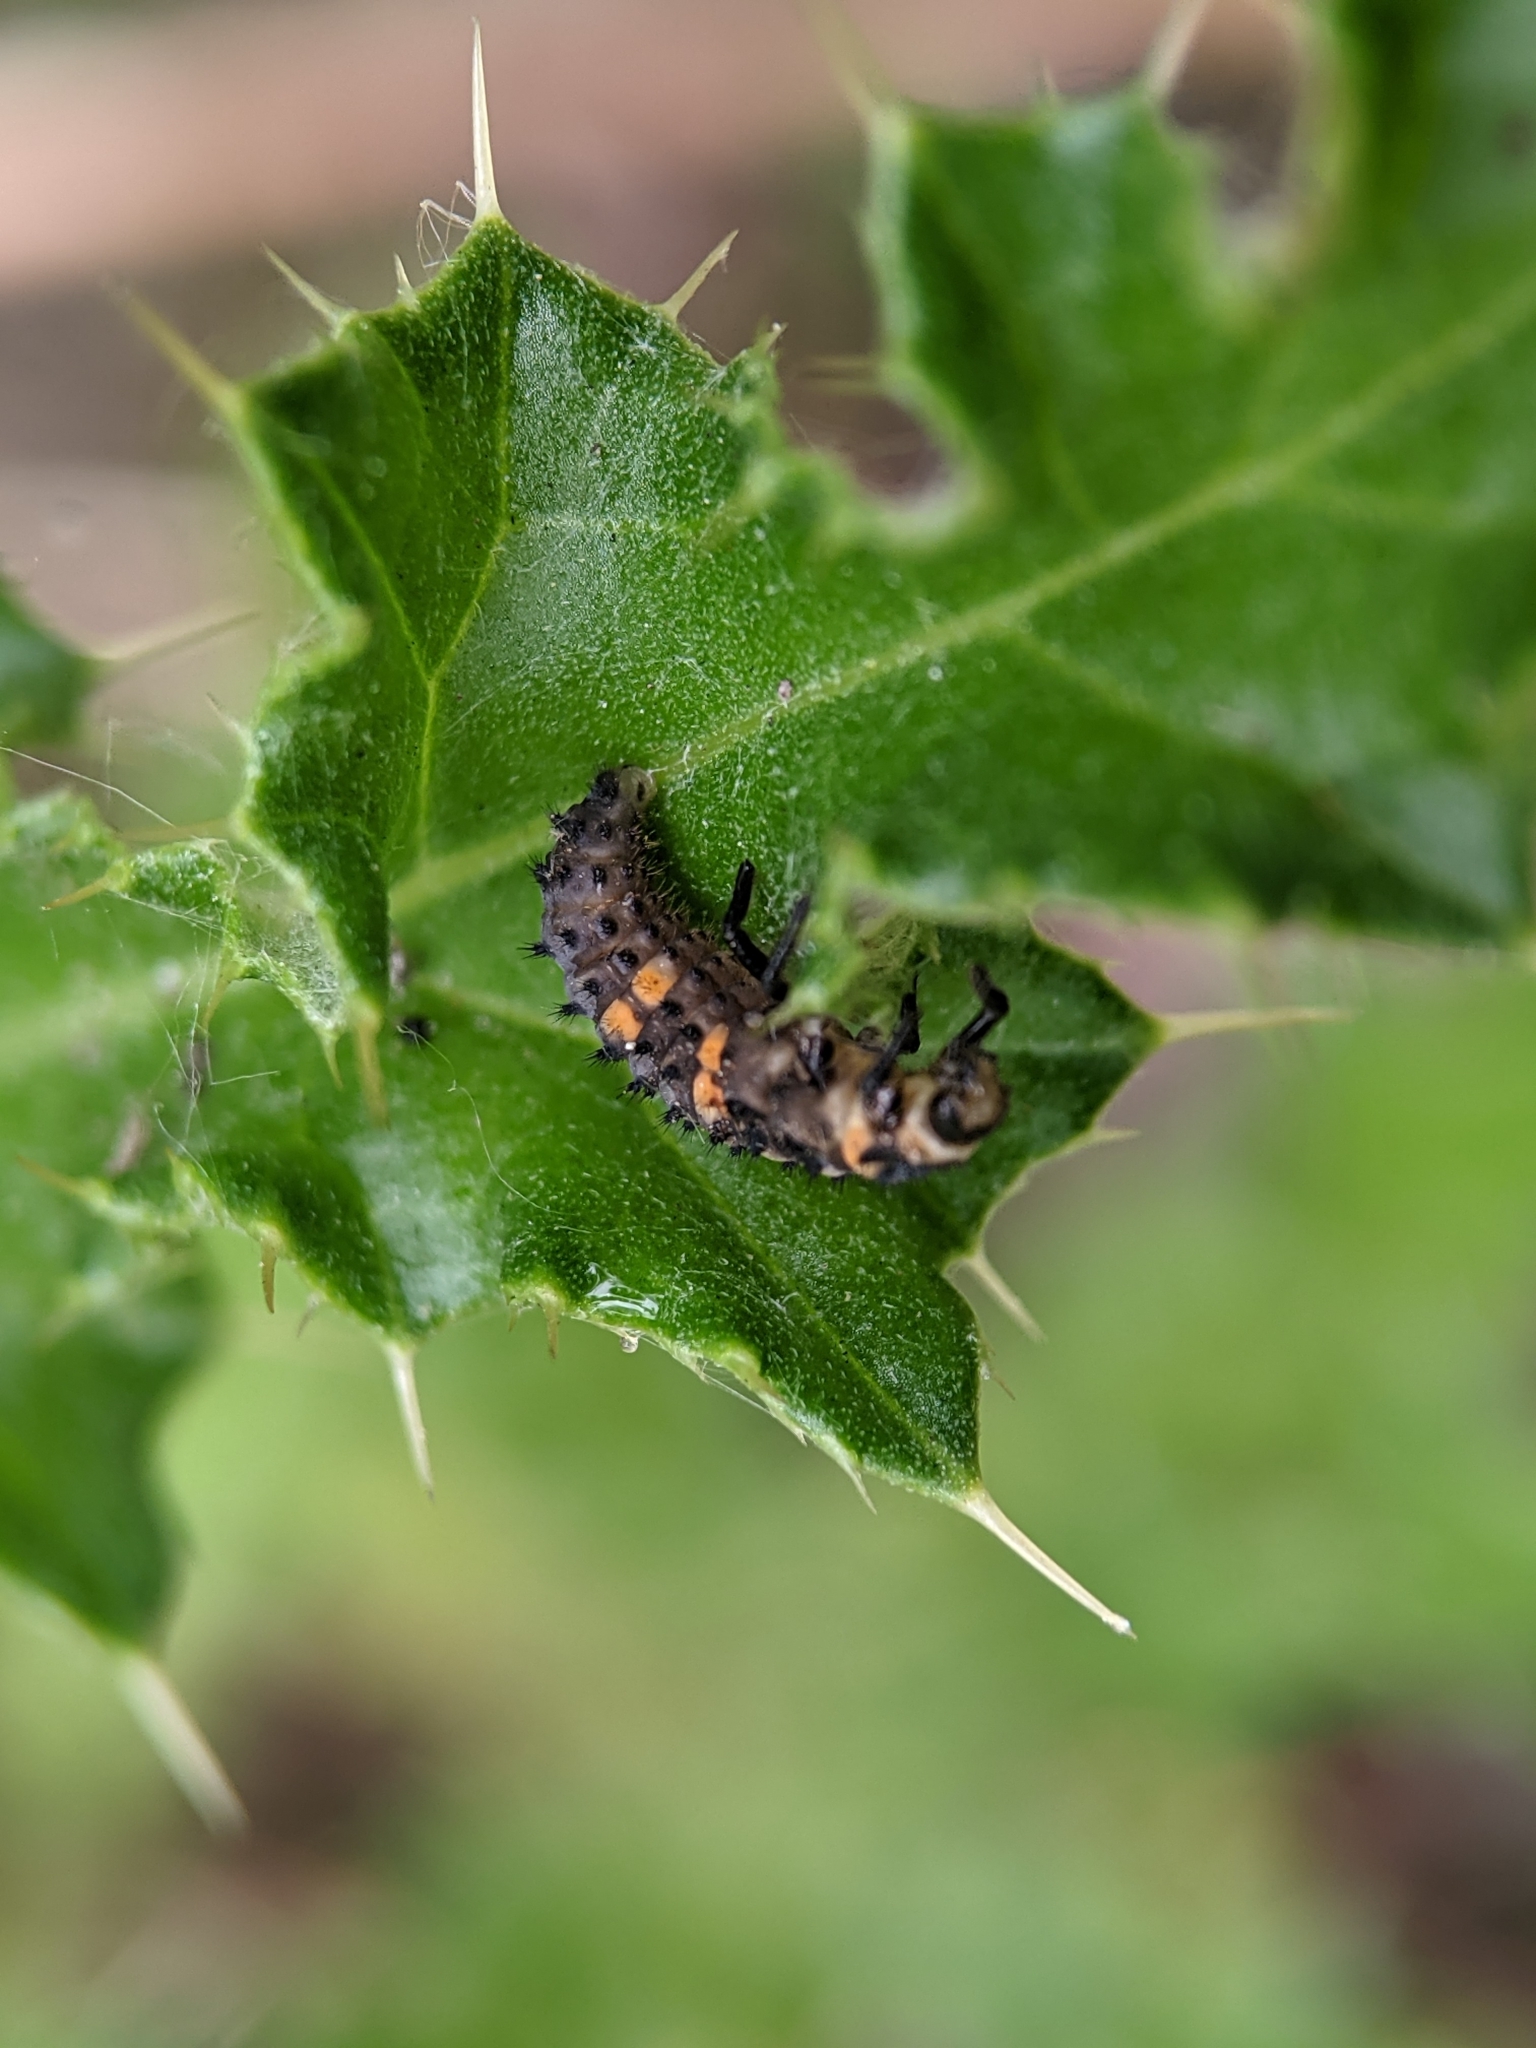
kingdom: Animalia
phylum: Arthropoda
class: Insecta
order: Coleoptera
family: Coccinellidae
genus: Coccinella
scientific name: Coccinella septempunctata
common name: Sevenspotted lady beetle
